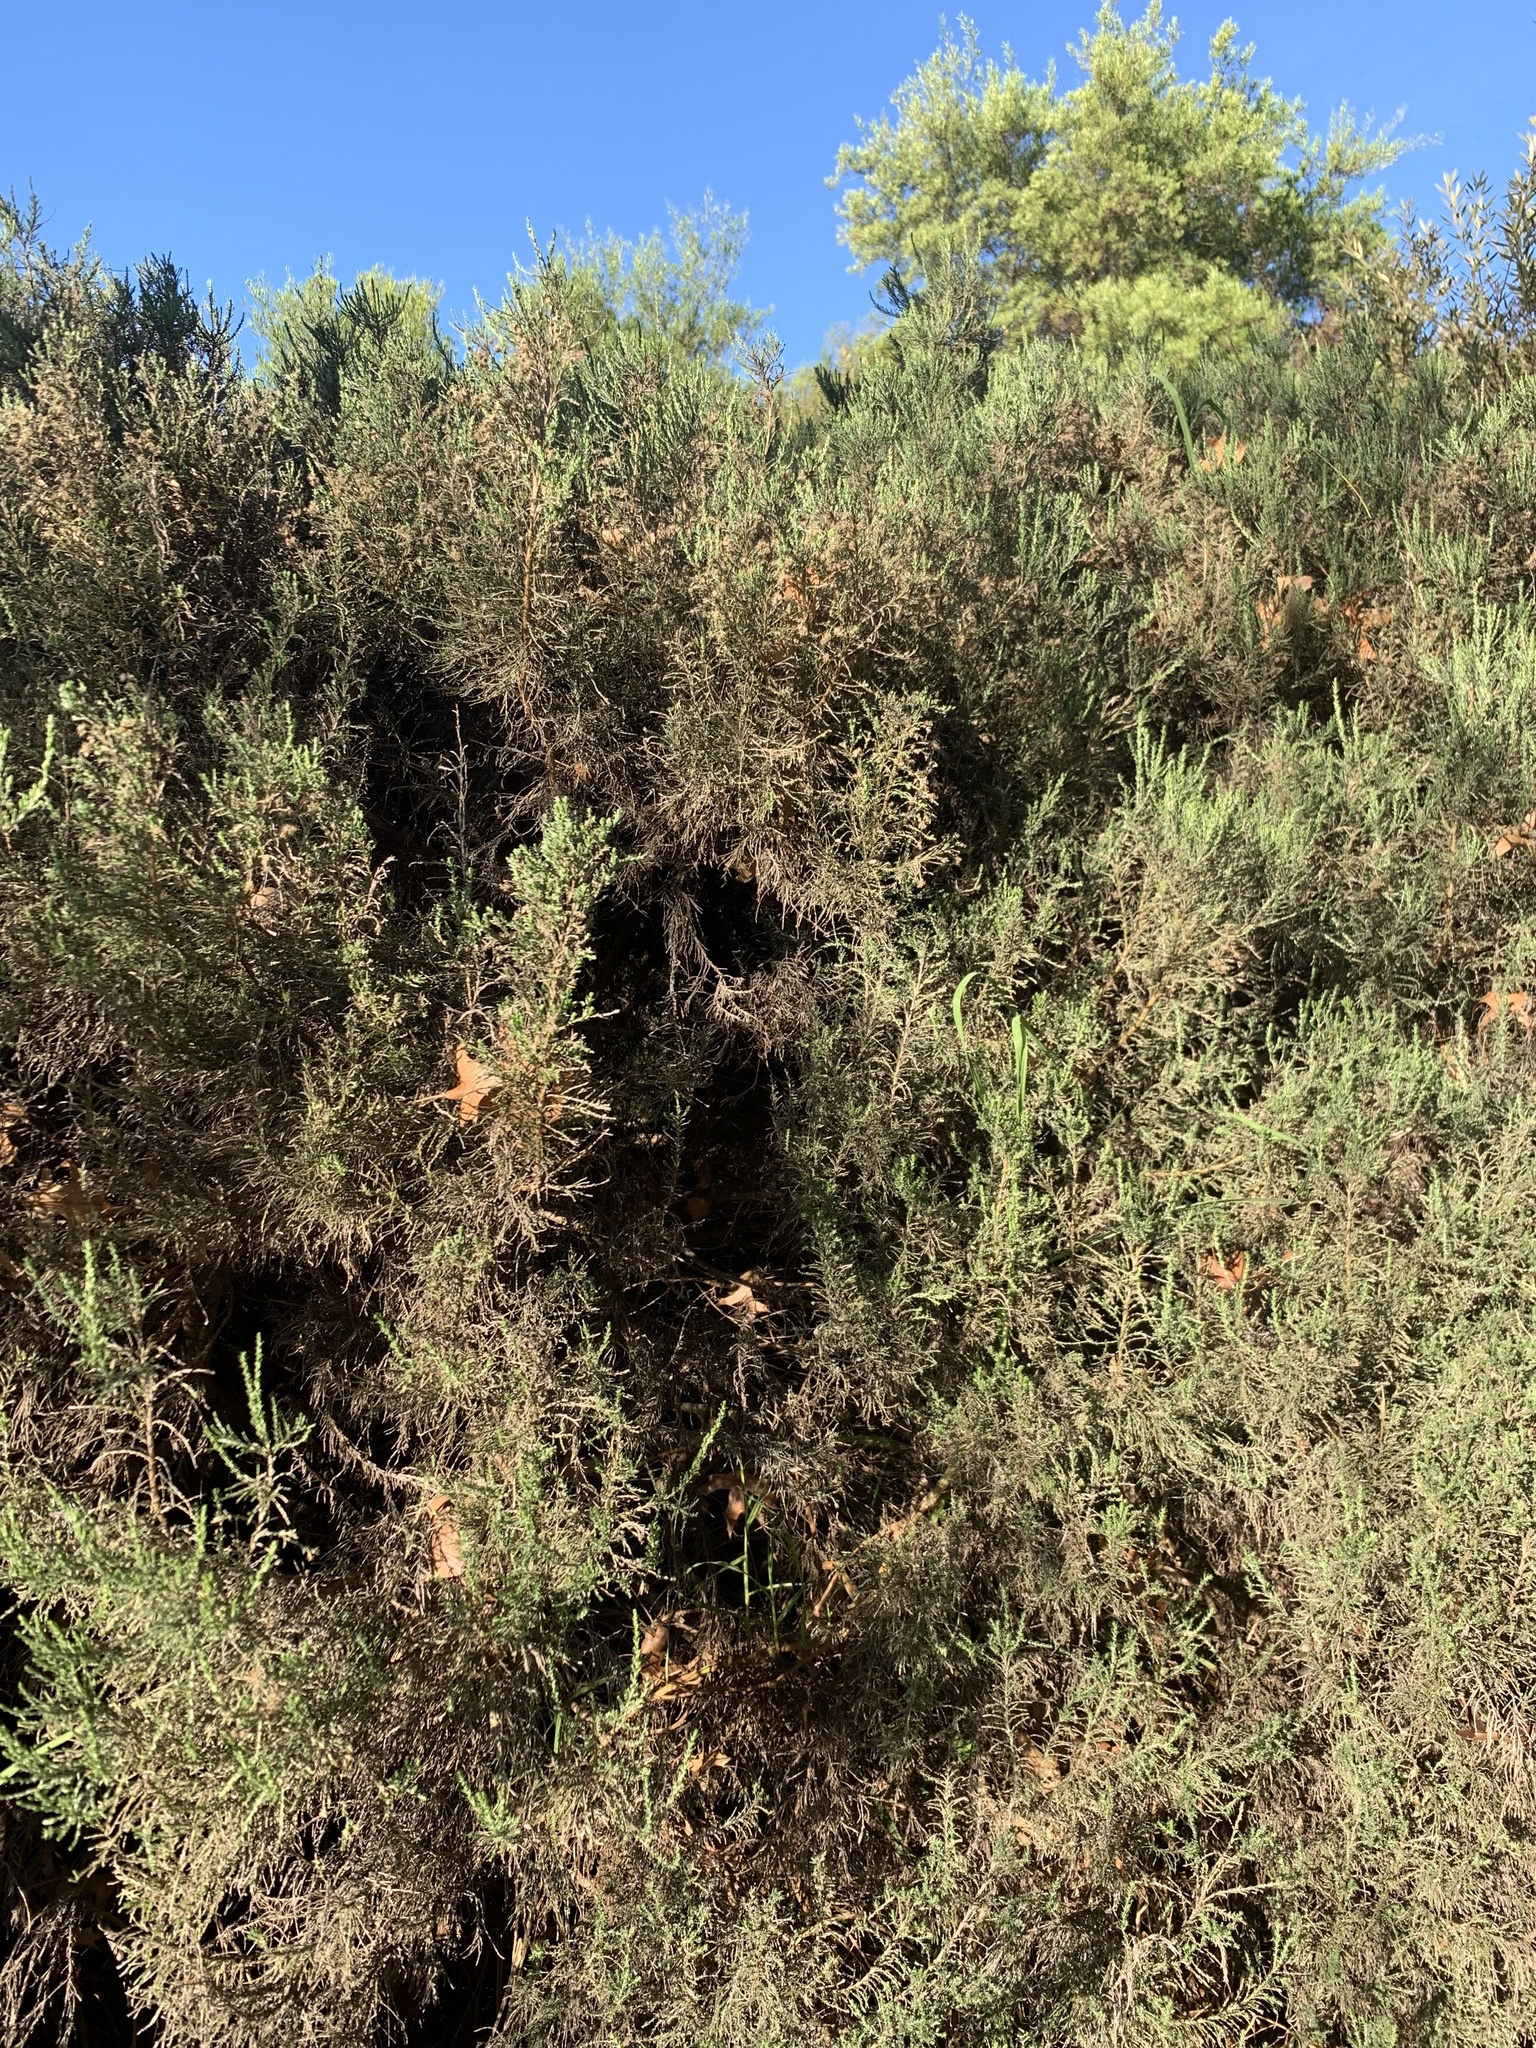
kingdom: Plantae
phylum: Tracheophyta
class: Magnoliopsida
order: Asterales
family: Asteraceae
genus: Dicerothamnus
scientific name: Dicerothamnus rhinocerotis
